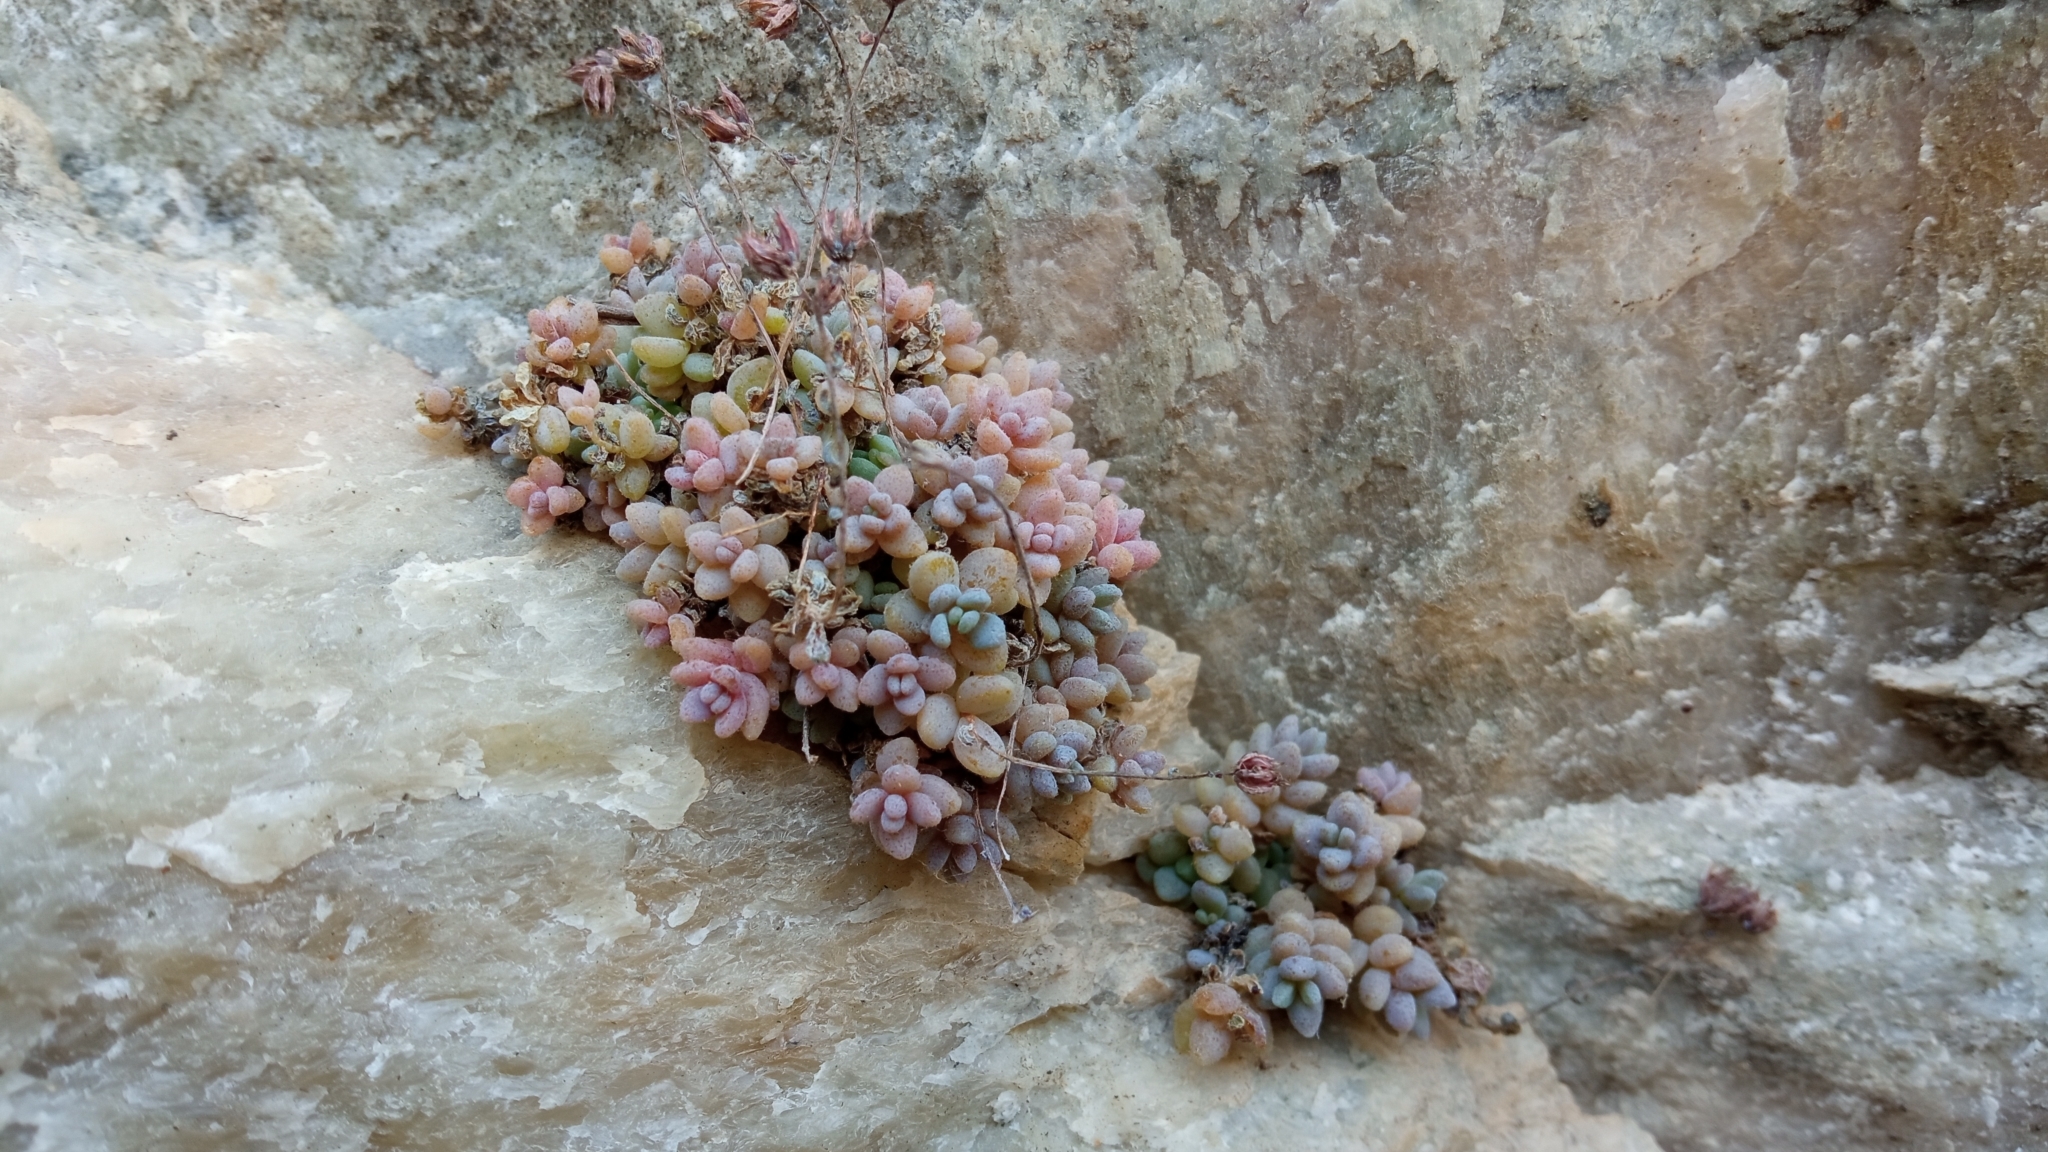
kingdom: Plantae
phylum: Tracheophyta
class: Magnoliopsida
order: Saxifragales
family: Crassulaceae
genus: Sedum
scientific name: Sedum dasyphyllum
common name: Thick-leaf stonecrop
